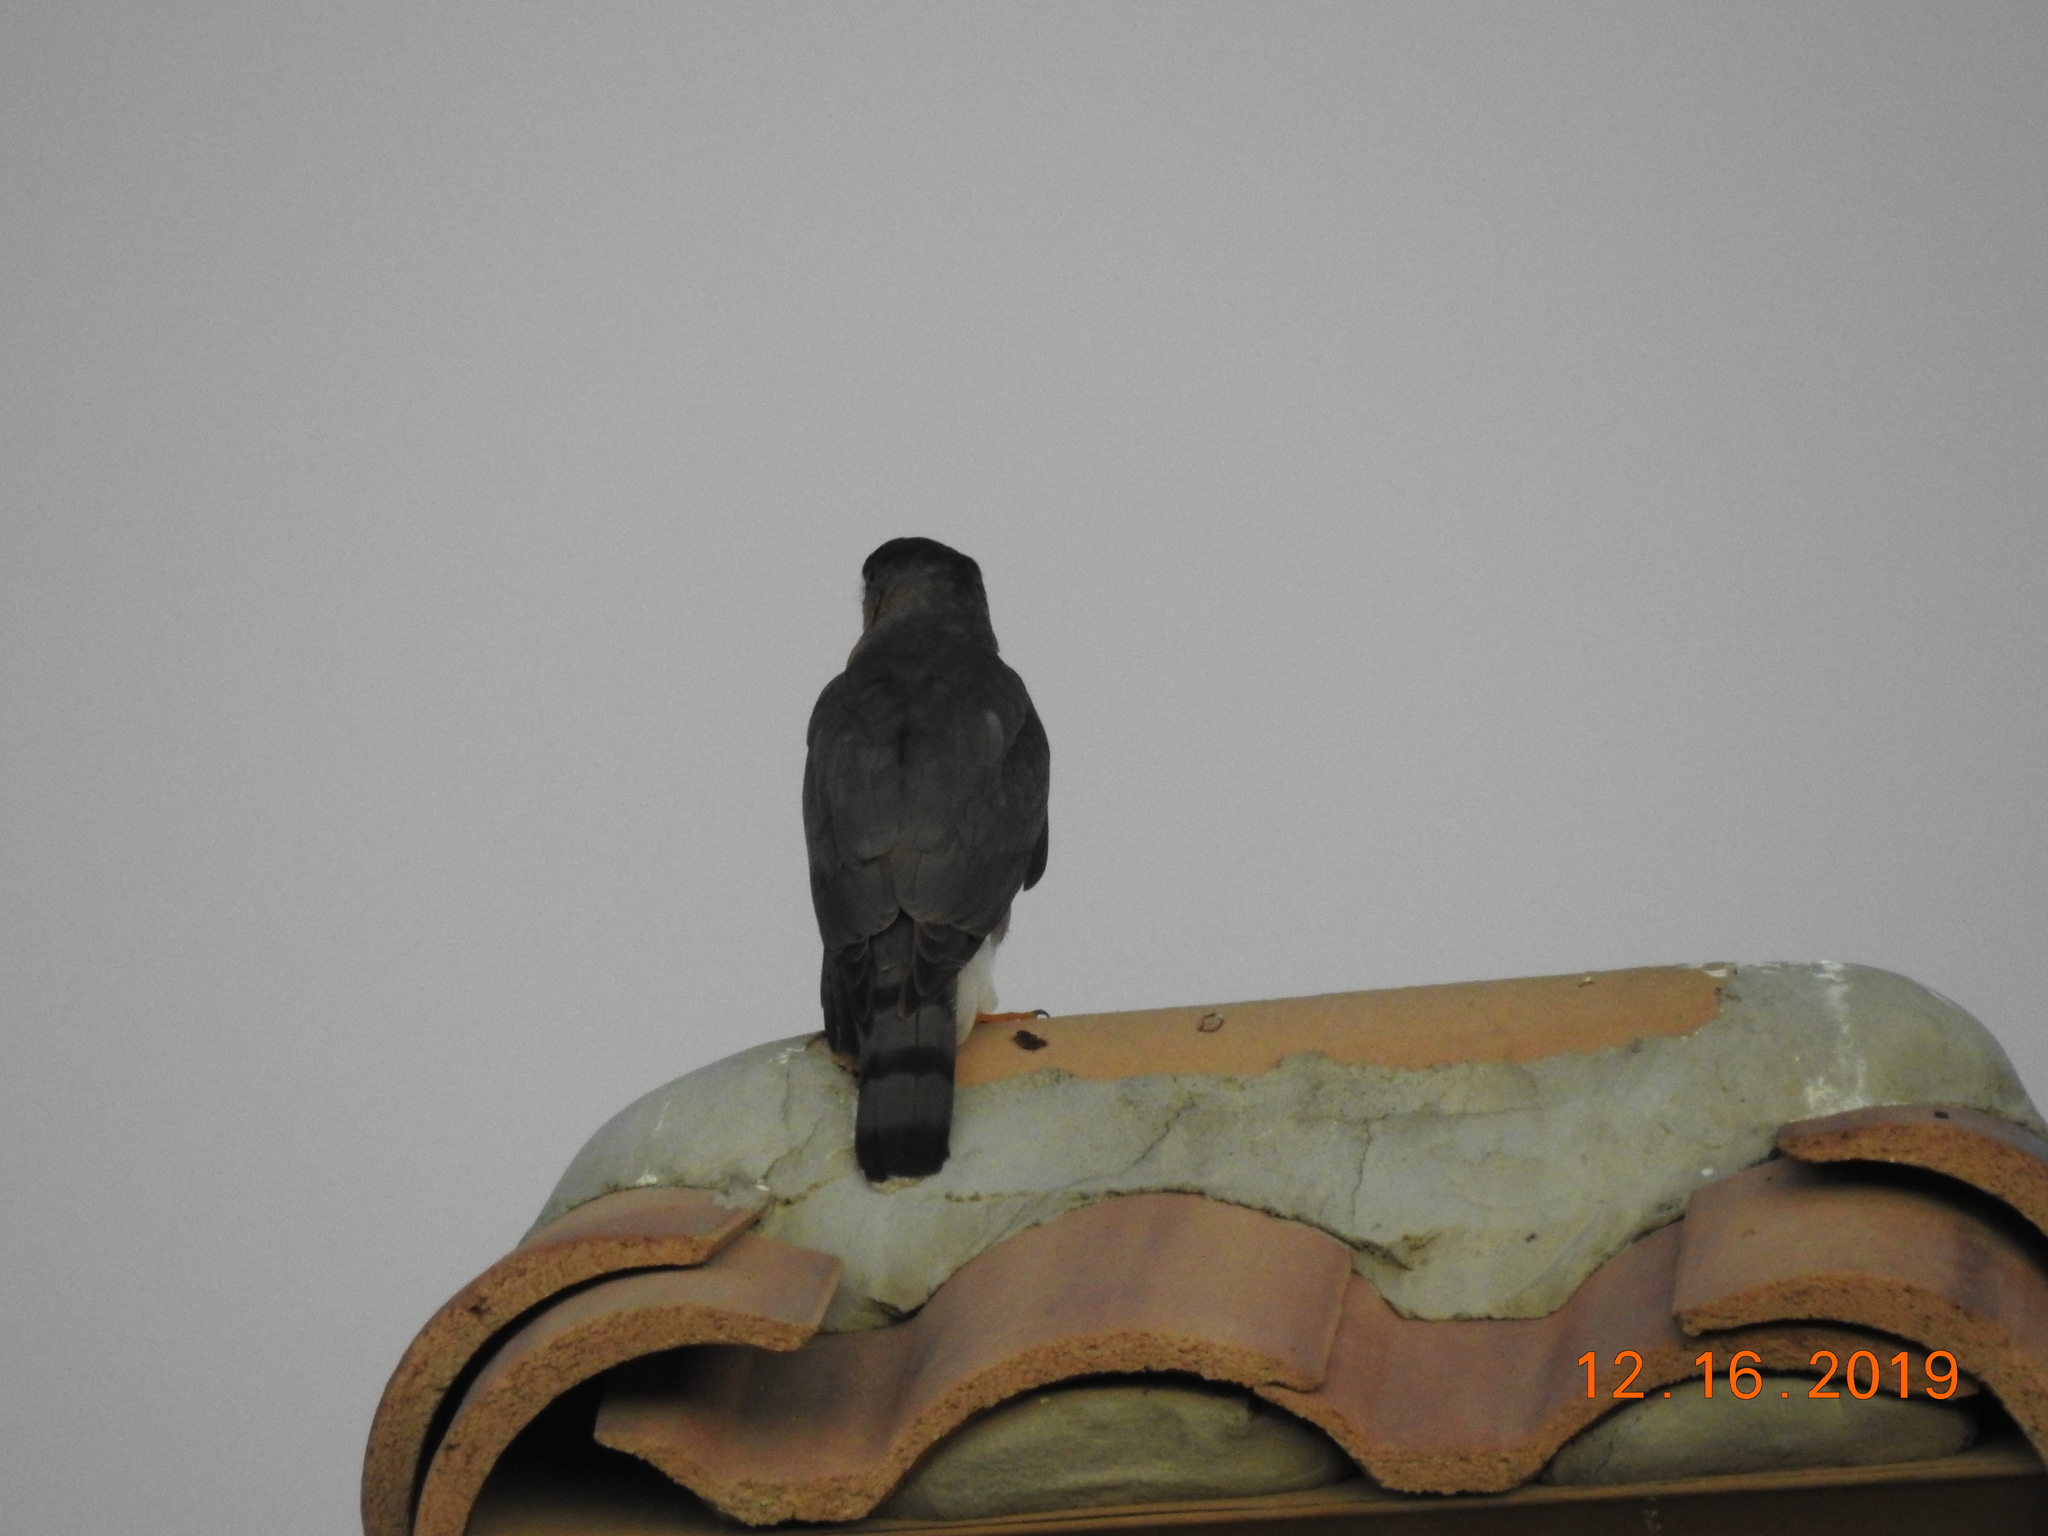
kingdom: Animalia
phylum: Chordata
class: Aves
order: Accipitriformes
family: Accipitridae
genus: Accipiter
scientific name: Accipiter cooperii
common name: Cooper's hawk
